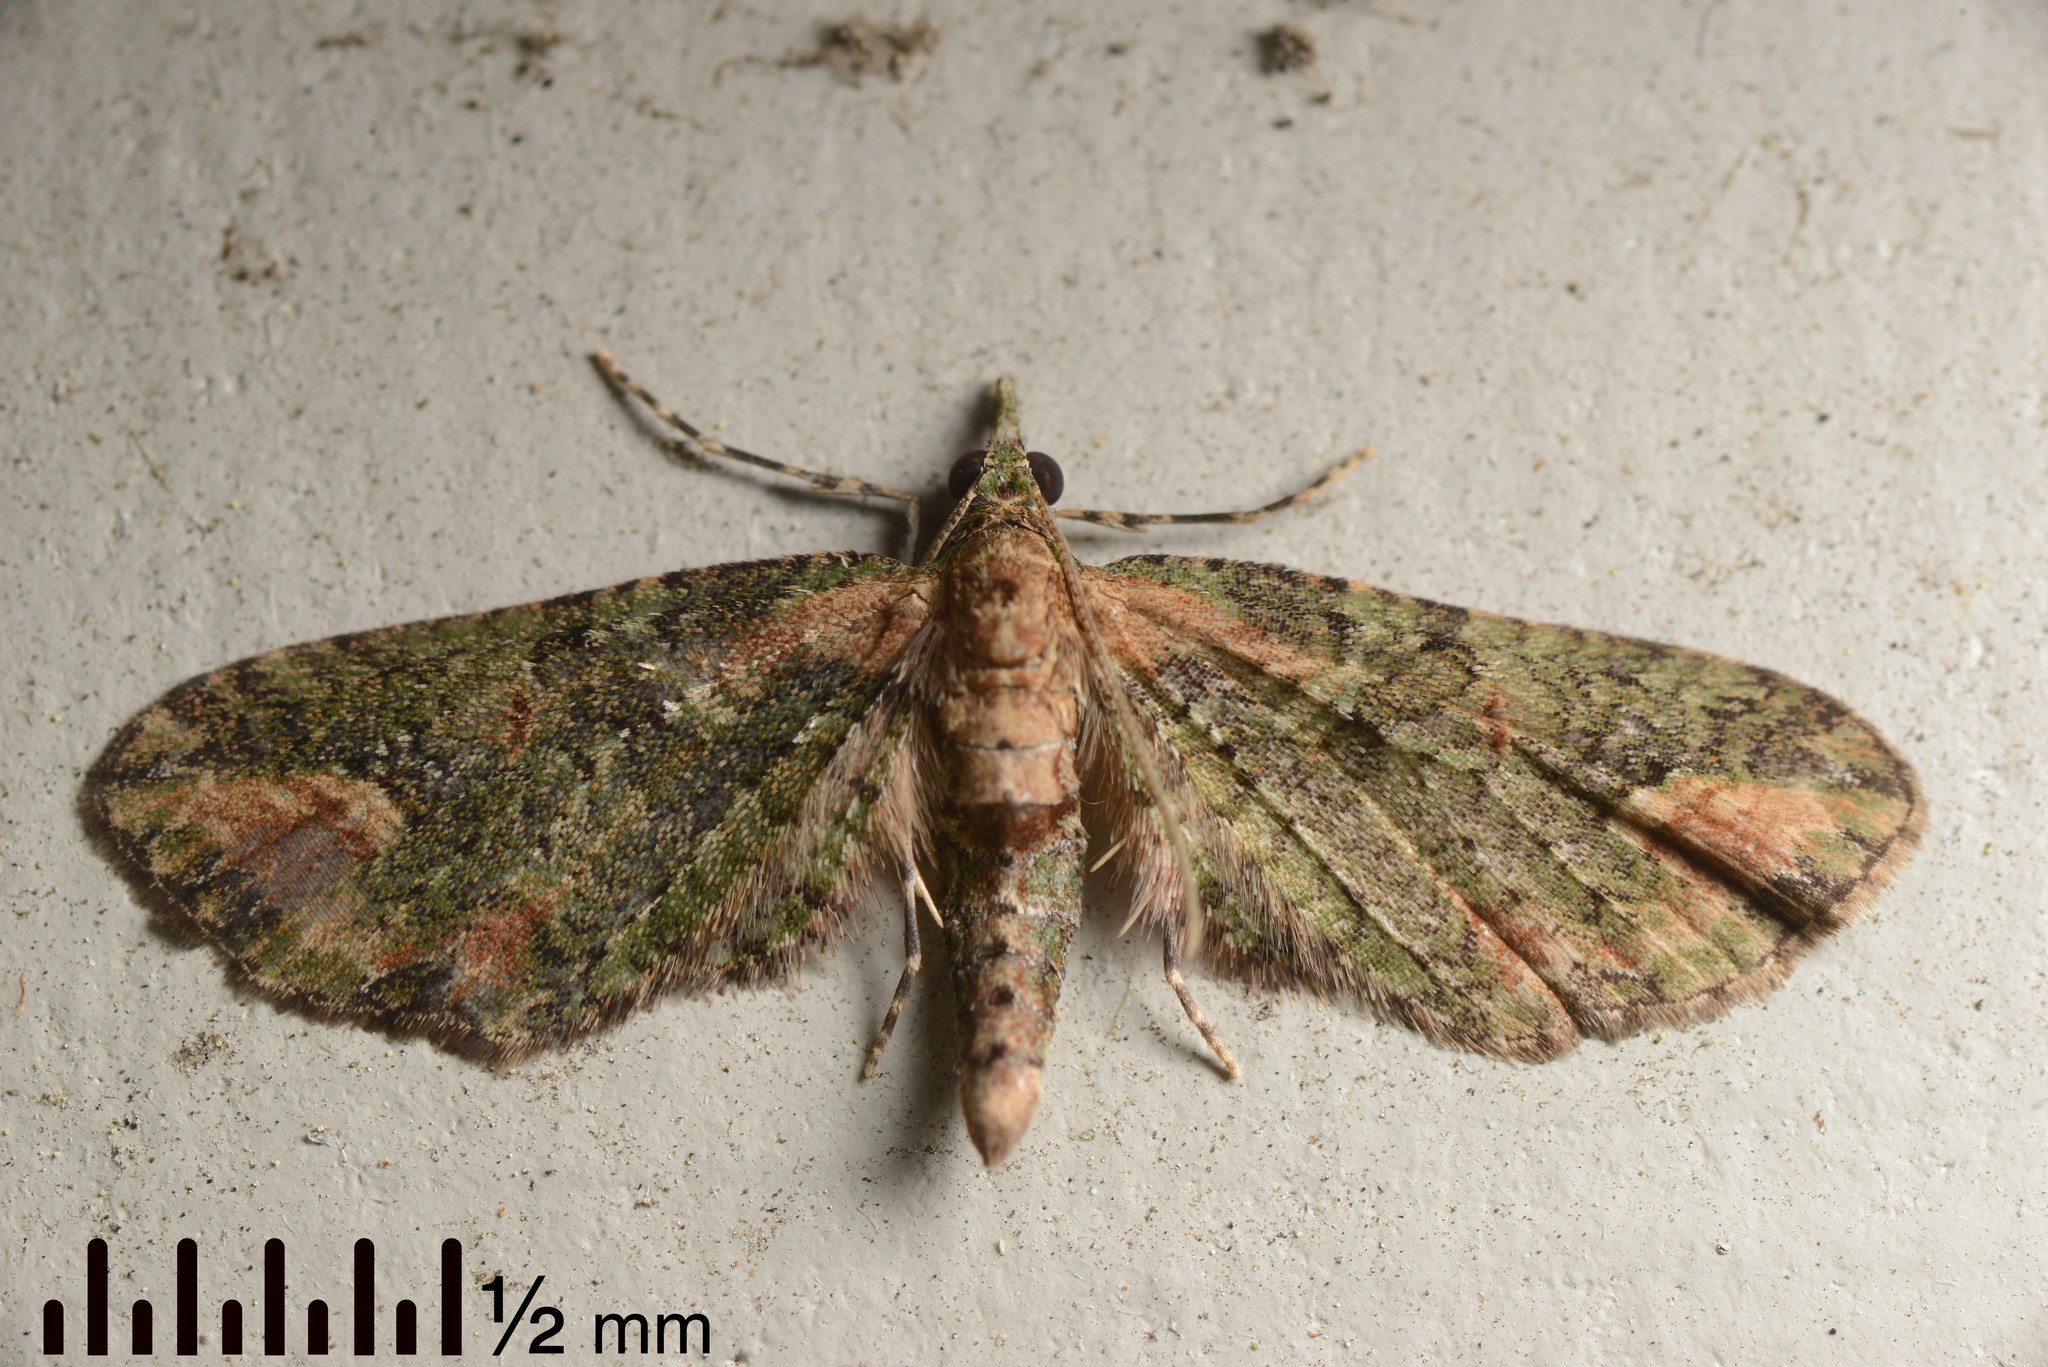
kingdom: Animalia
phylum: Arthropoda
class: Insecta
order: Lepidoptera
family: Geometridae
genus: Idaea
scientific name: Idaea mutanda
